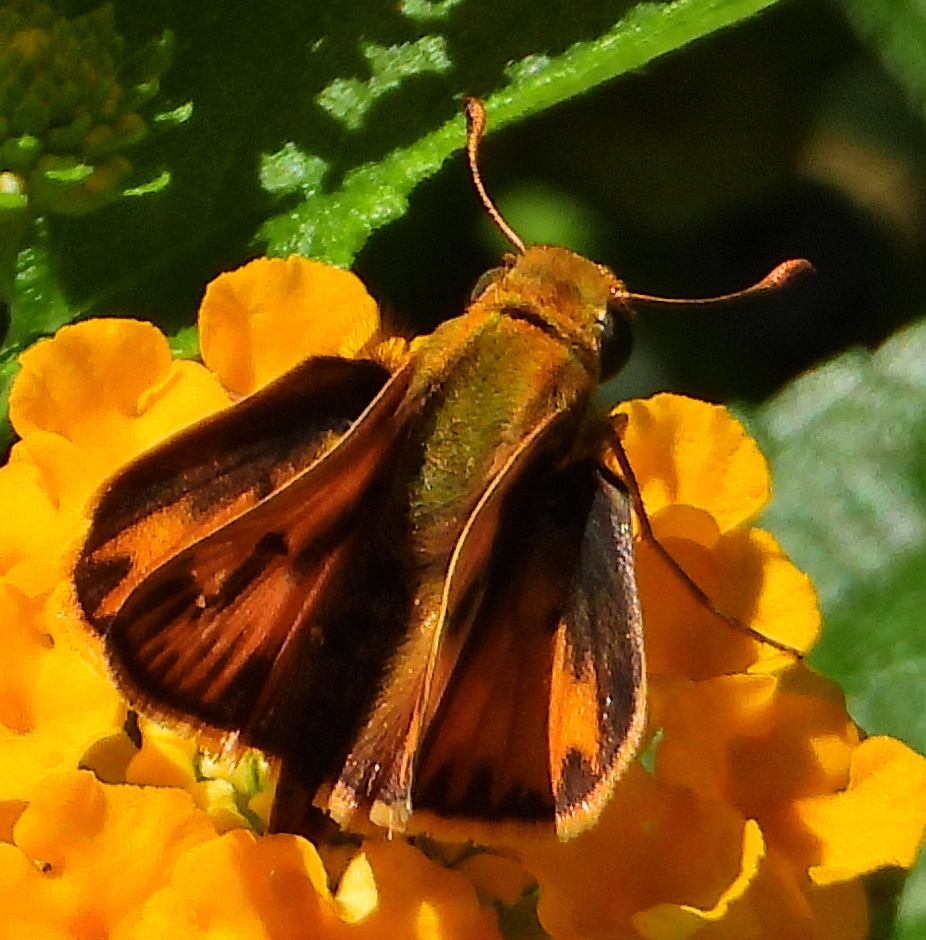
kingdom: Animalia
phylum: Arthropoda
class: Insecta
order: Lepidoptera
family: Hesperiidae
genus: Hylephila
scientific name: Hylephila phyleus
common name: Fiery skipper
